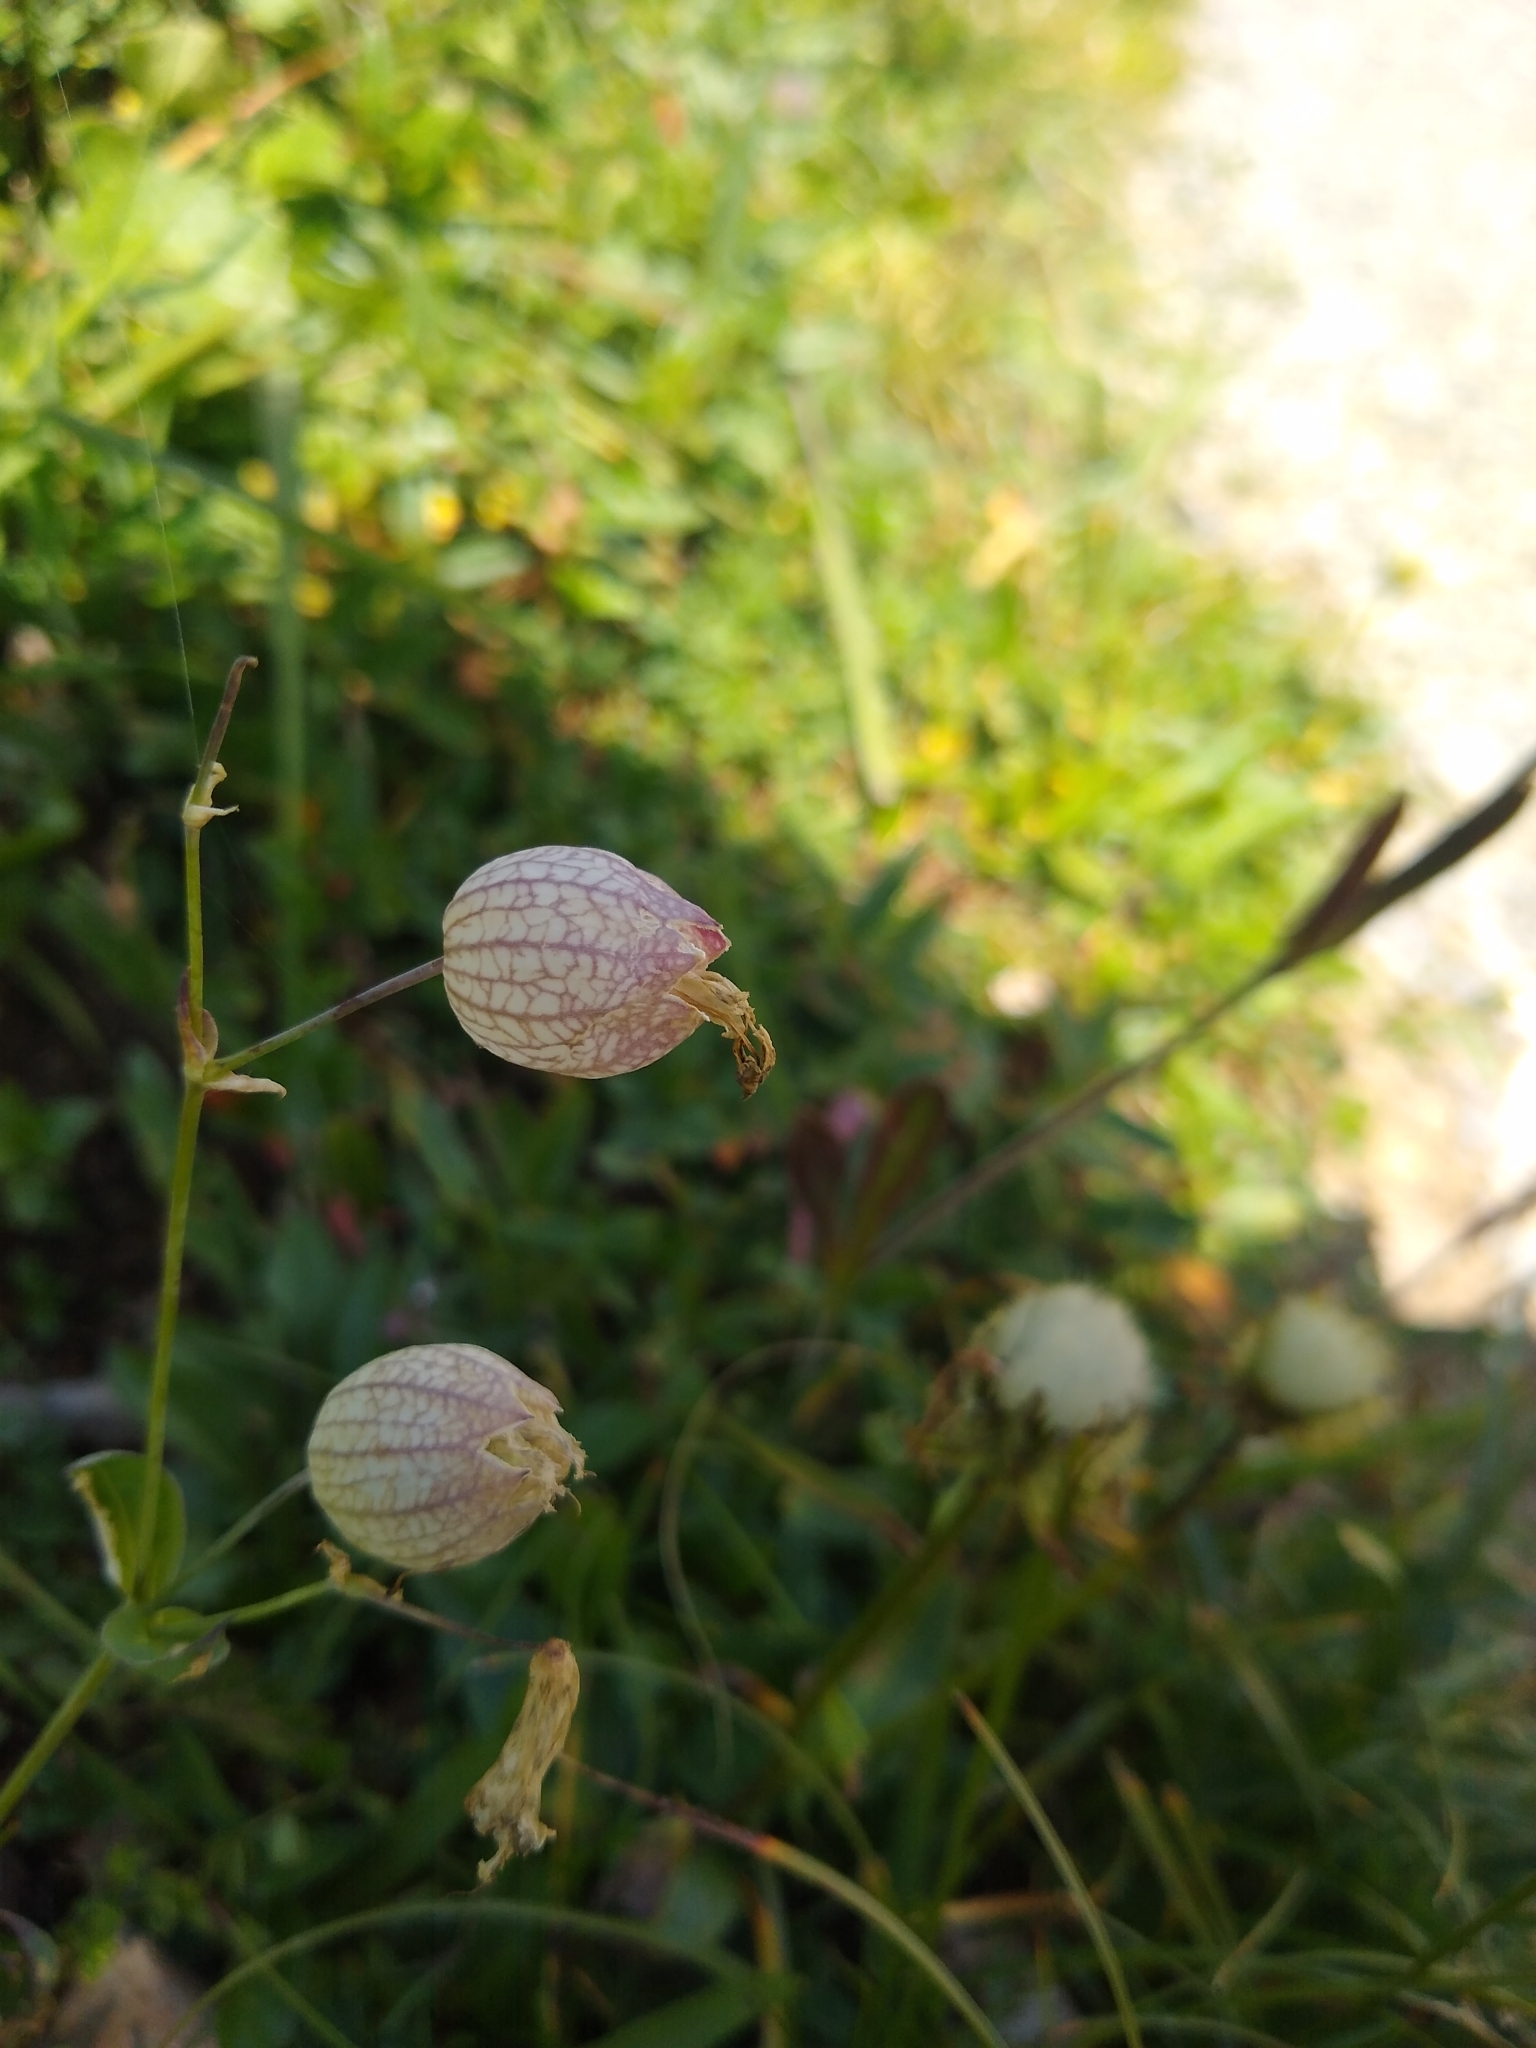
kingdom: Plantae
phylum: Tracheophyta
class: Magnoliopsida
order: Caryophyllales
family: Caryophyllaceae
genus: Silene
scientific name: Silene vulgaris
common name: Bladder campion
